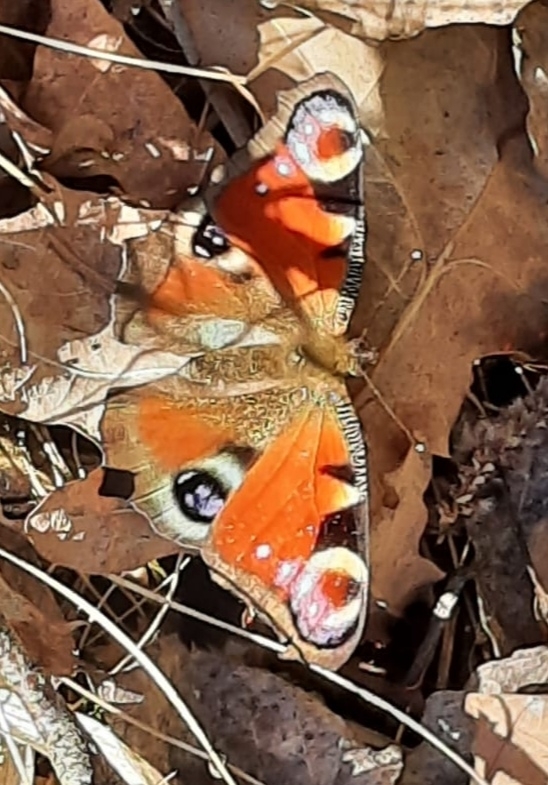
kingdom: Animalia
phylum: Arthropoda
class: Insecta
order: Lepidoptera
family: Nymphalidae
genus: Aglais
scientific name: Aglais io
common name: Peacock
